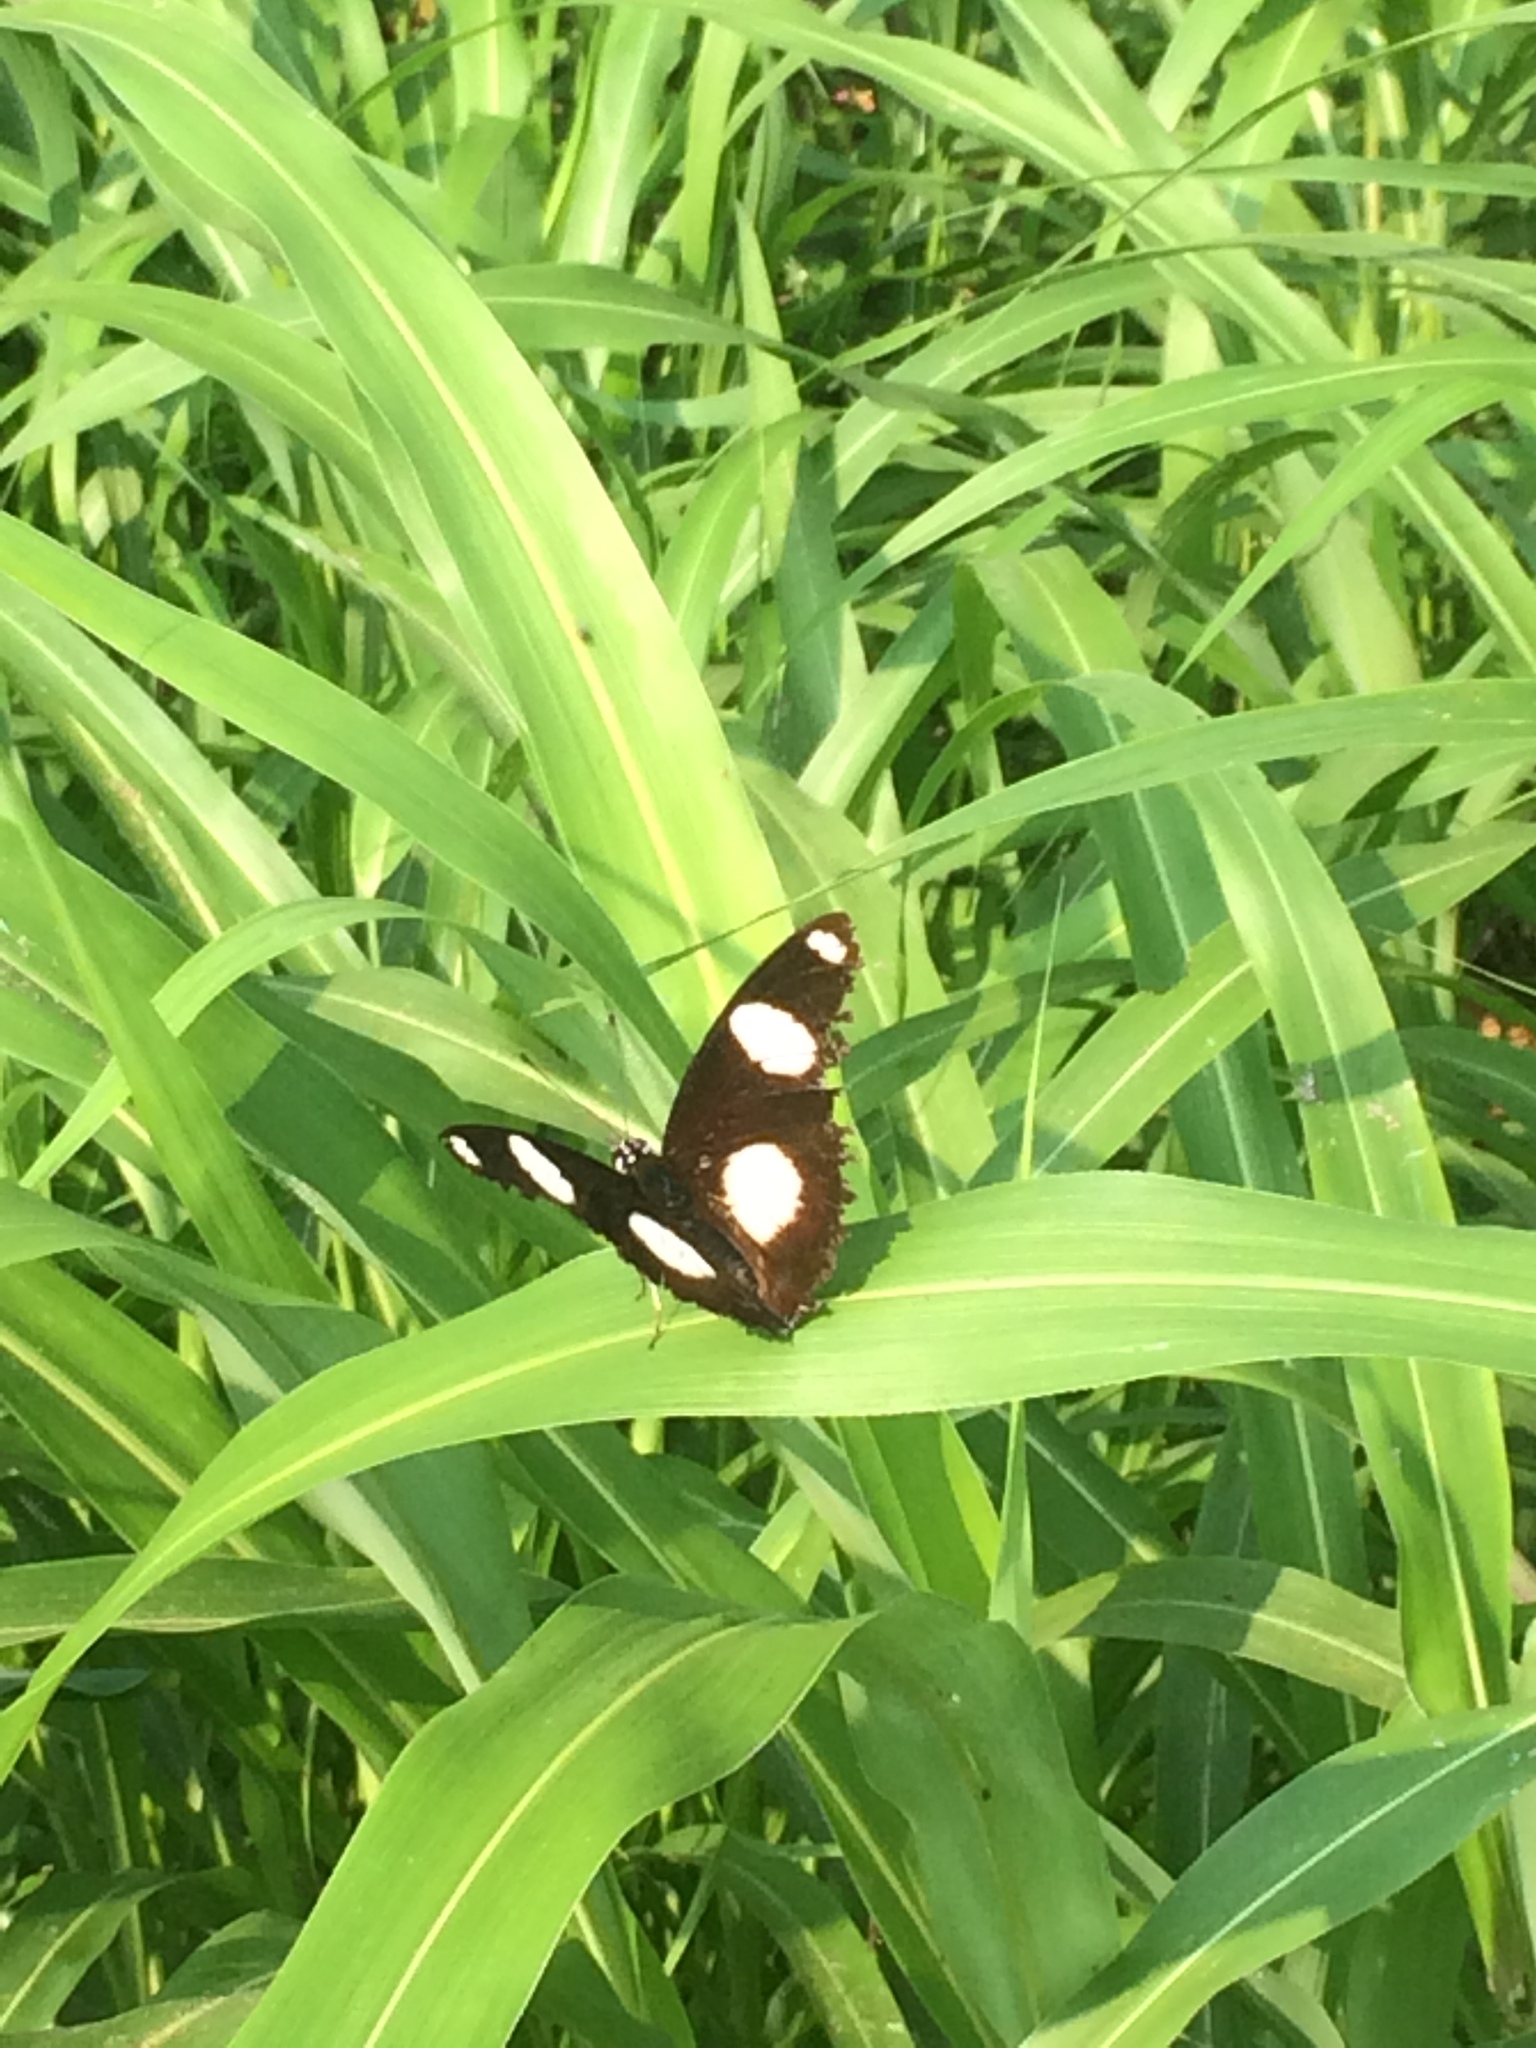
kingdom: Animalia
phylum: Arthropoda
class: Insecta
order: Lepidoptera
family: Nymphalidae
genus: Hypolimnas
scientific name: Hypolimnas misippus
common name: False plain tiger
